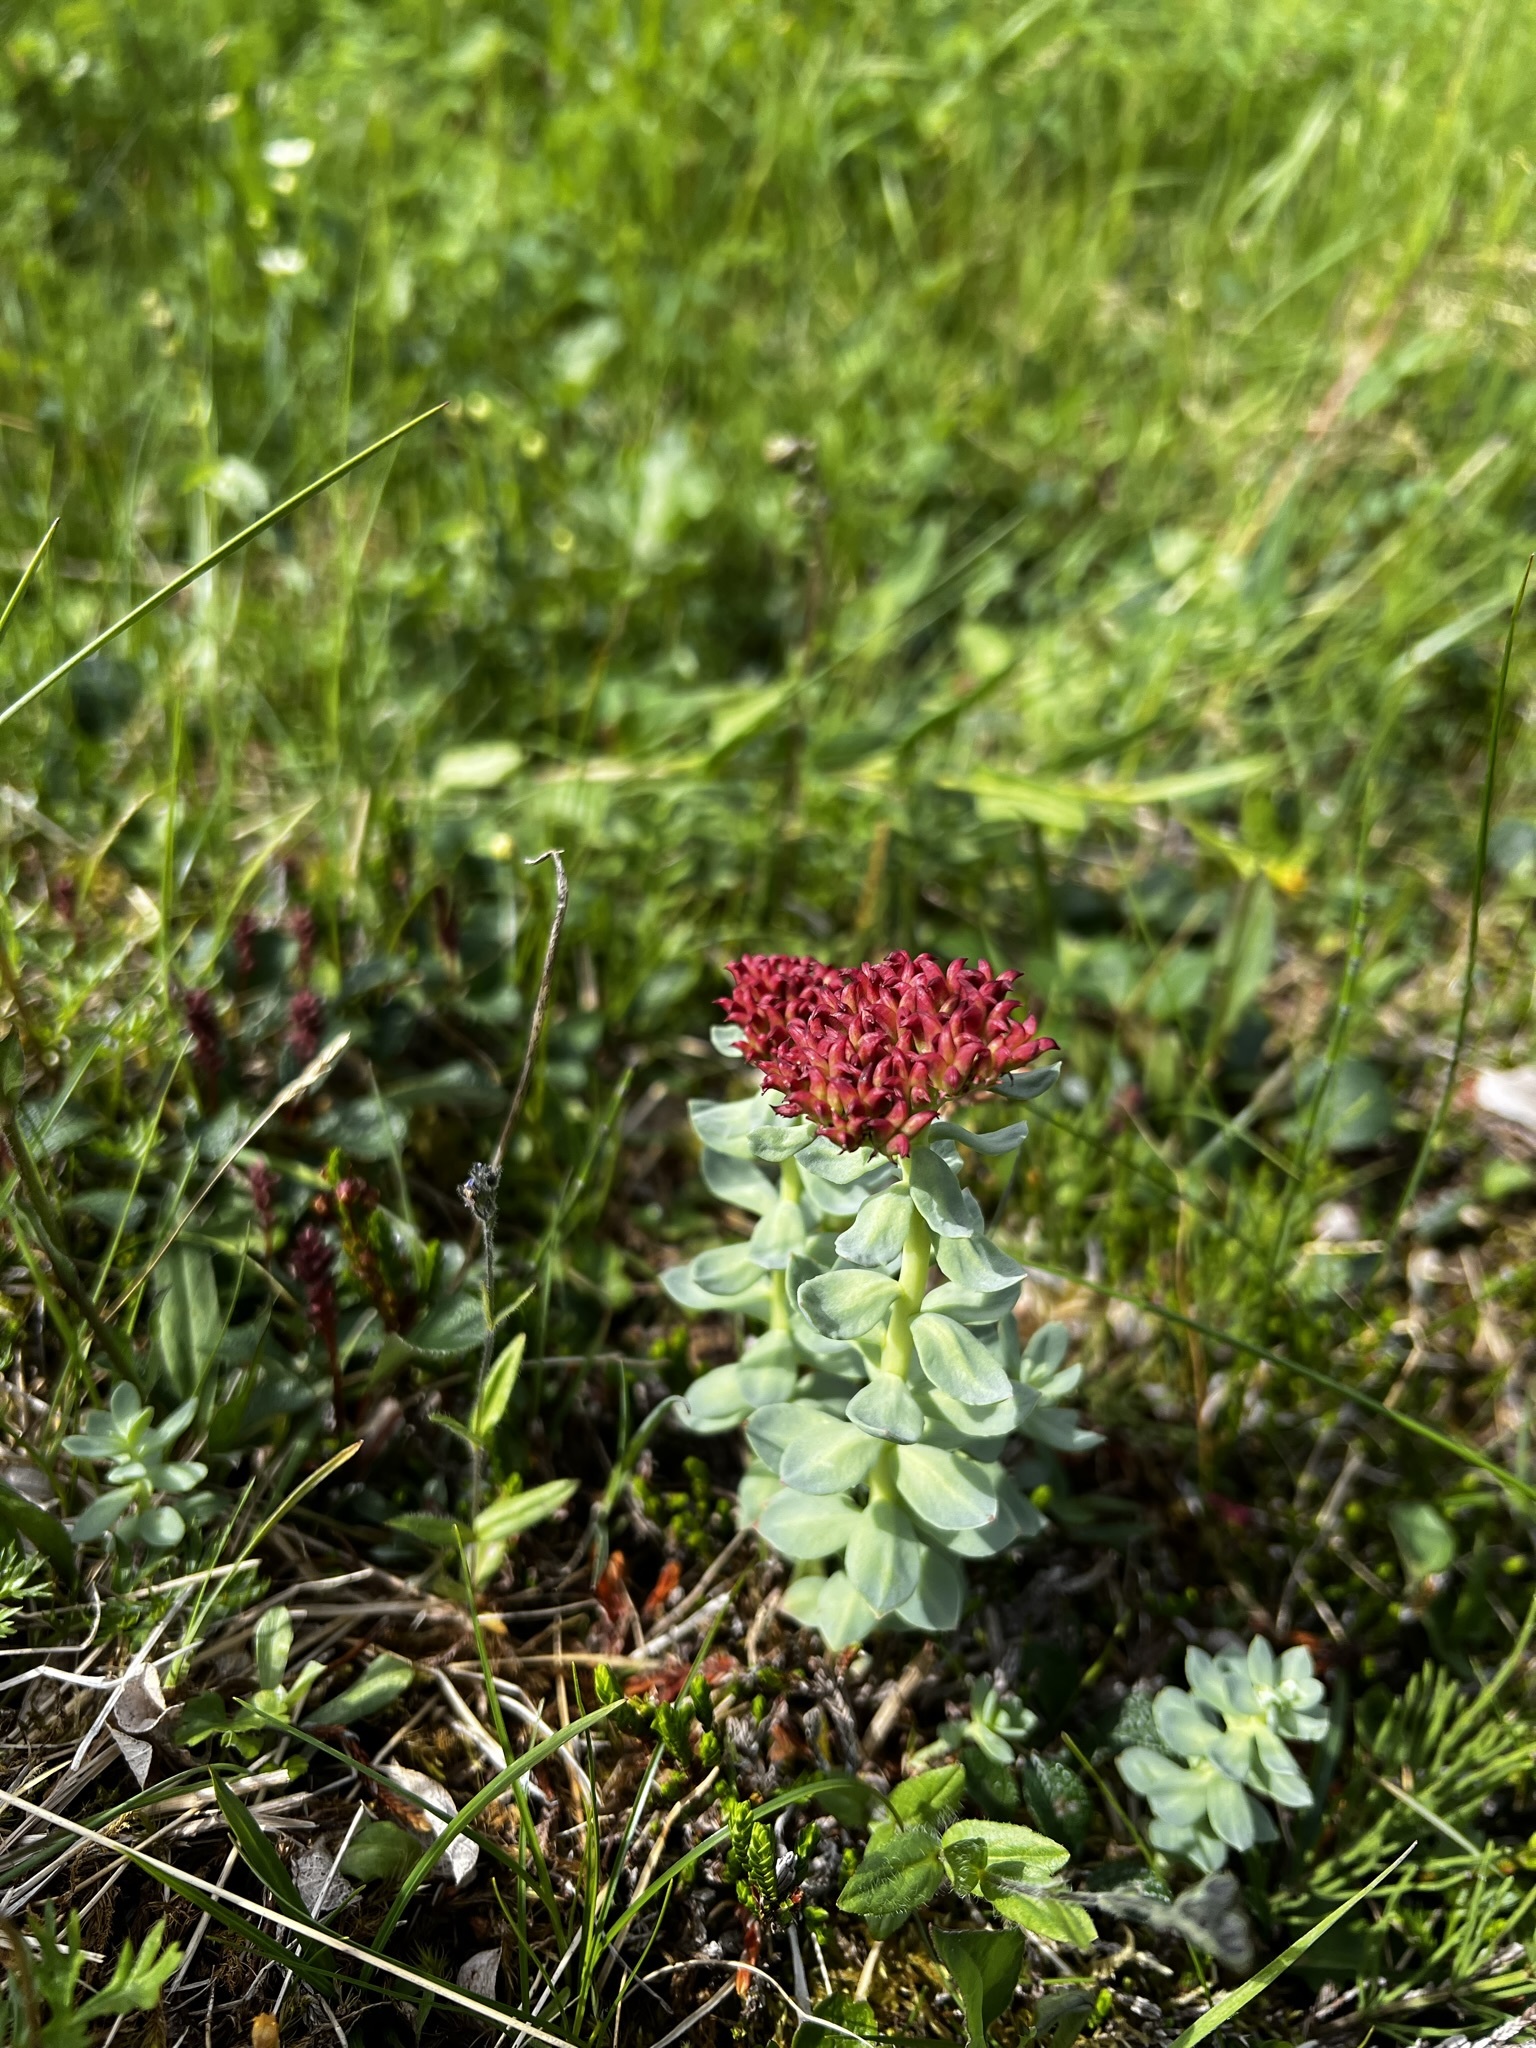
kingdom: Plantae
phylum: Tracheophyta
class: Magnoliopsida
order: Saxifragales
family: Crassulaceae
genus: Rhodiola
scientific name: Rhodiola integrifolia
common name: Western roseroot
